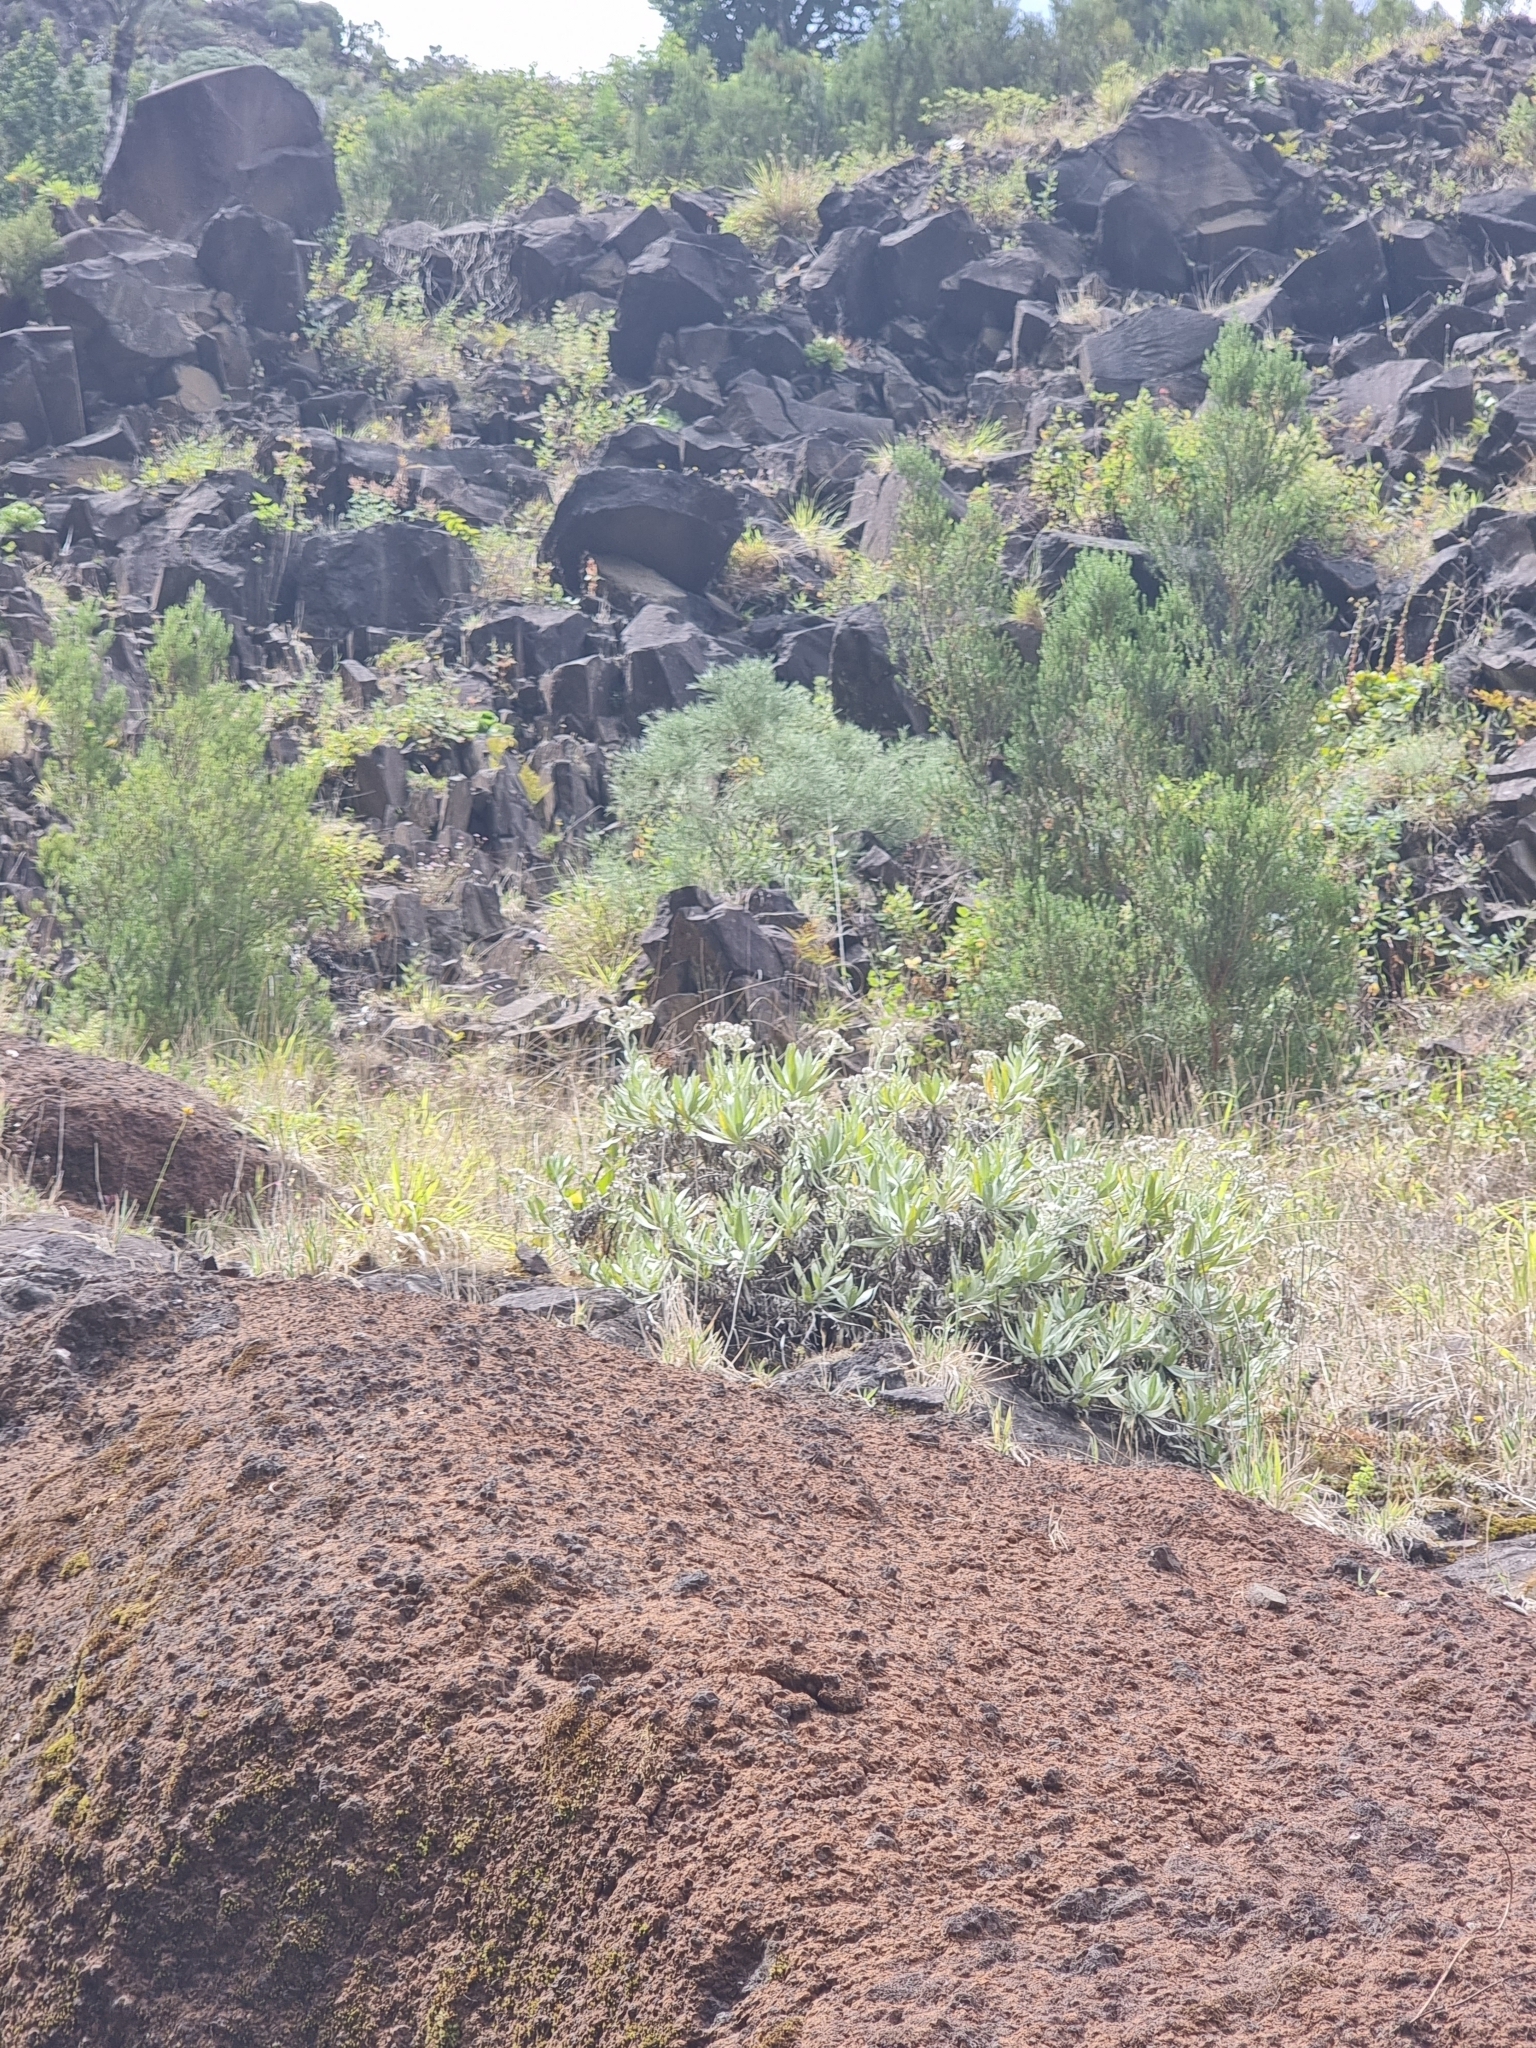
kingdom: Plantae
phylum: Tracheophyta
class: Magnoliopsida
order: Asterales
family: Asteraceae
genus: Helichrysum
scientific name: Helichrysum melaleucum
